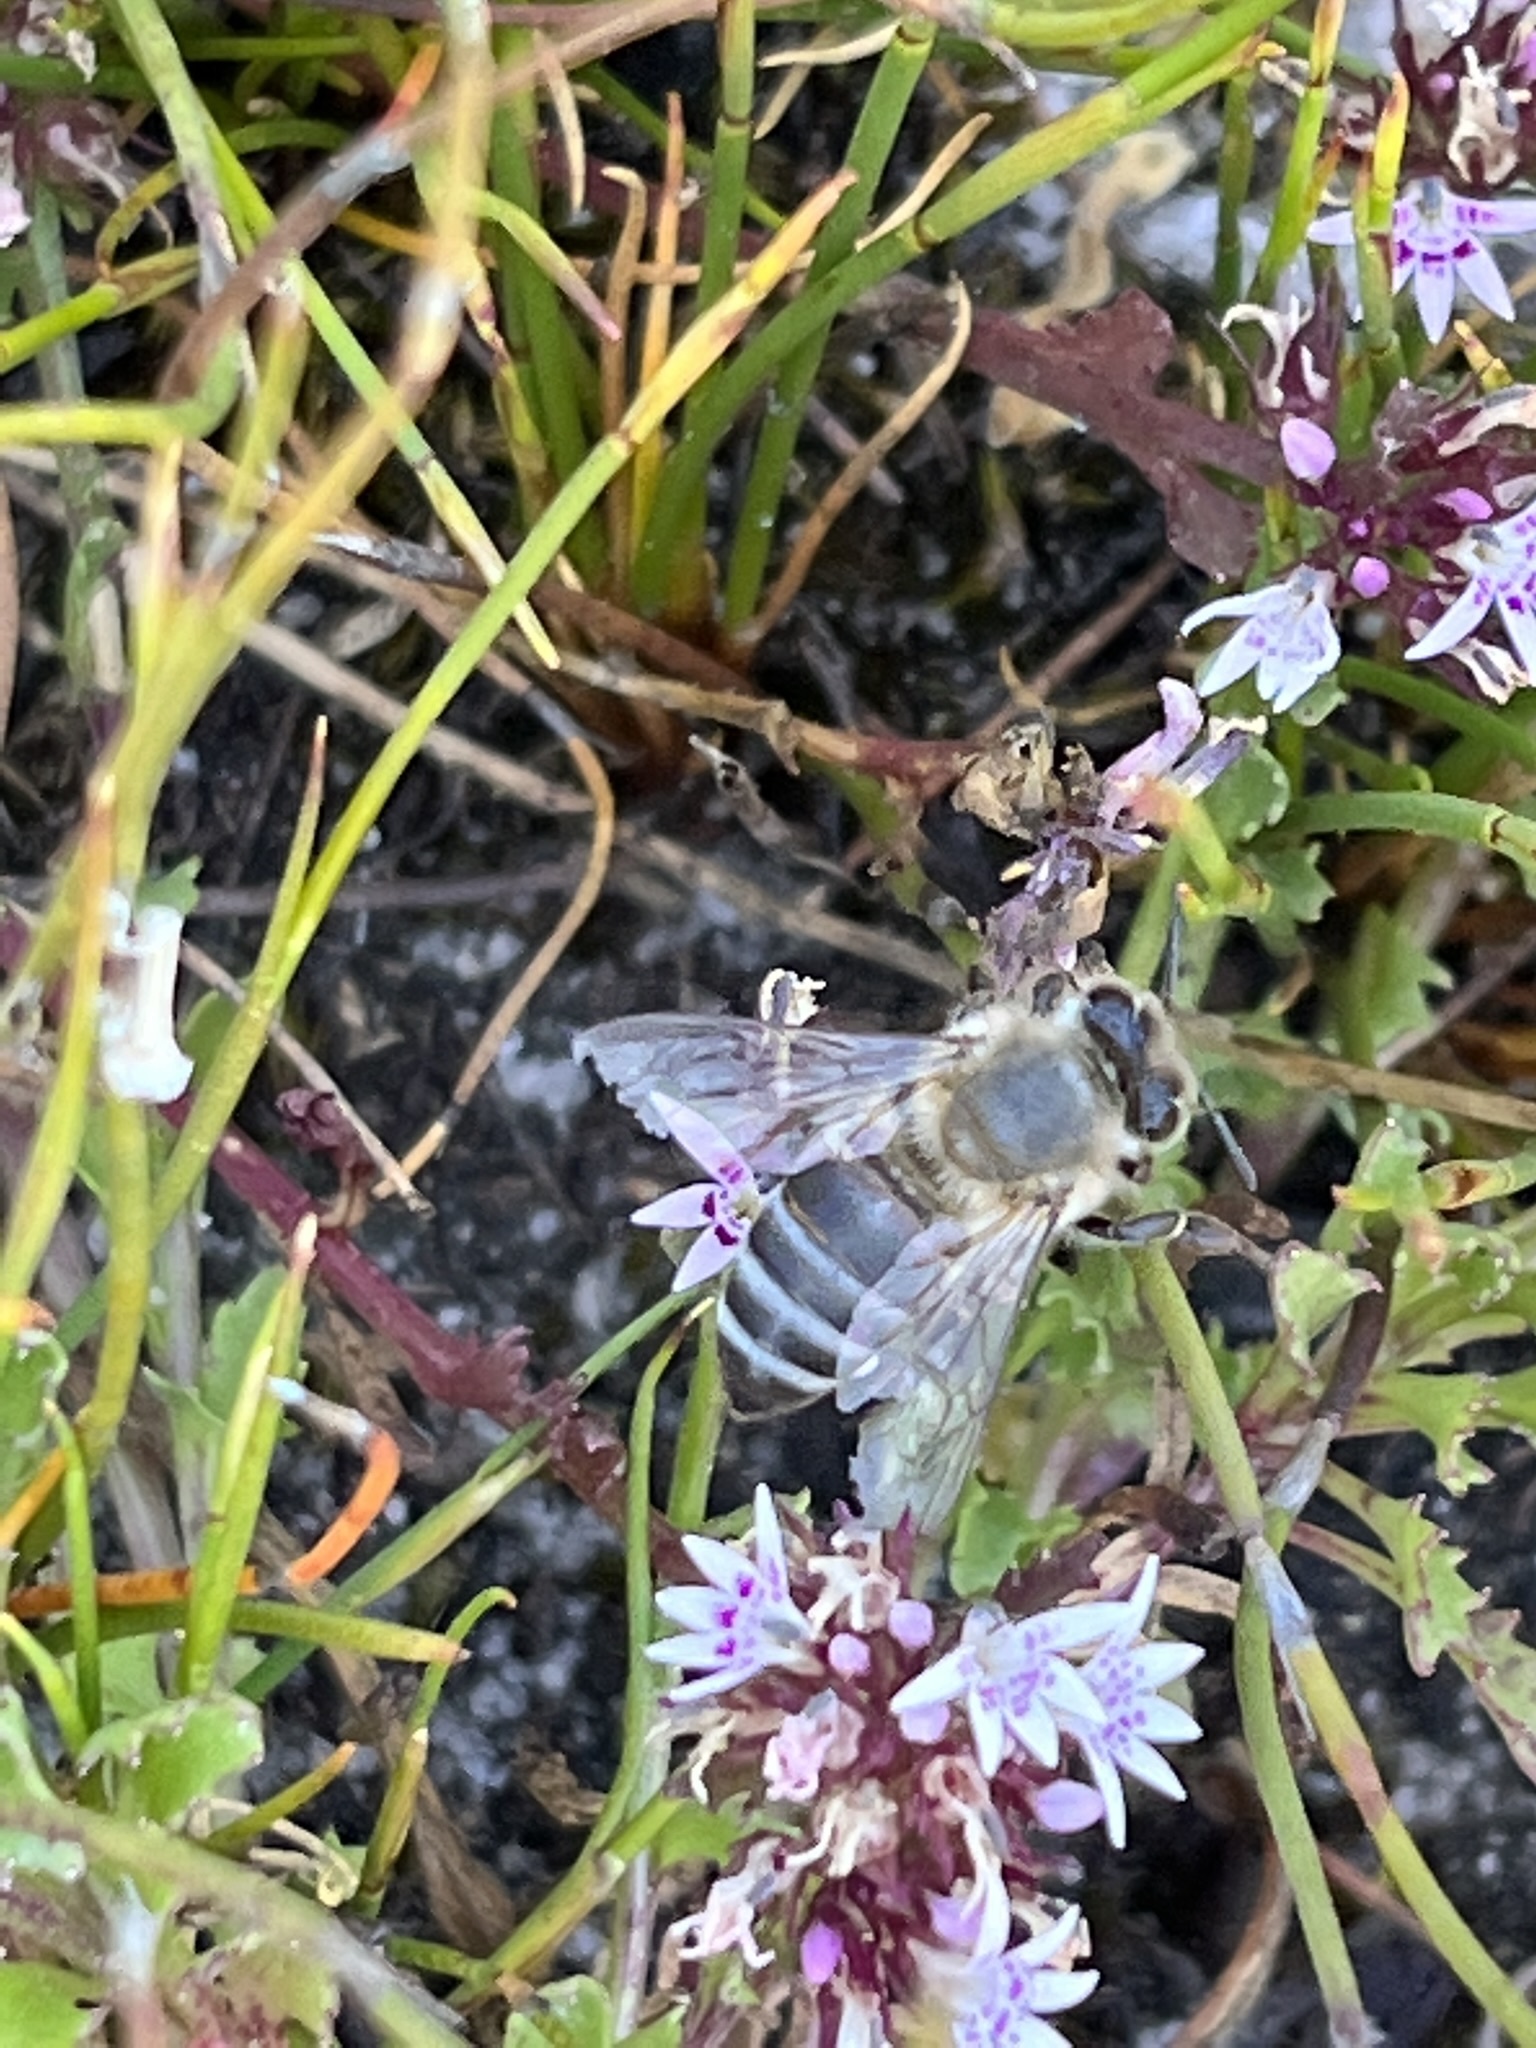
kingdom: Animalia
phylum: Arthropoda
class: Insecta
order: Hymenoptera
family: Apidae
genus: Apis
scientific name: Apis mellifera
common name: Honey bee
